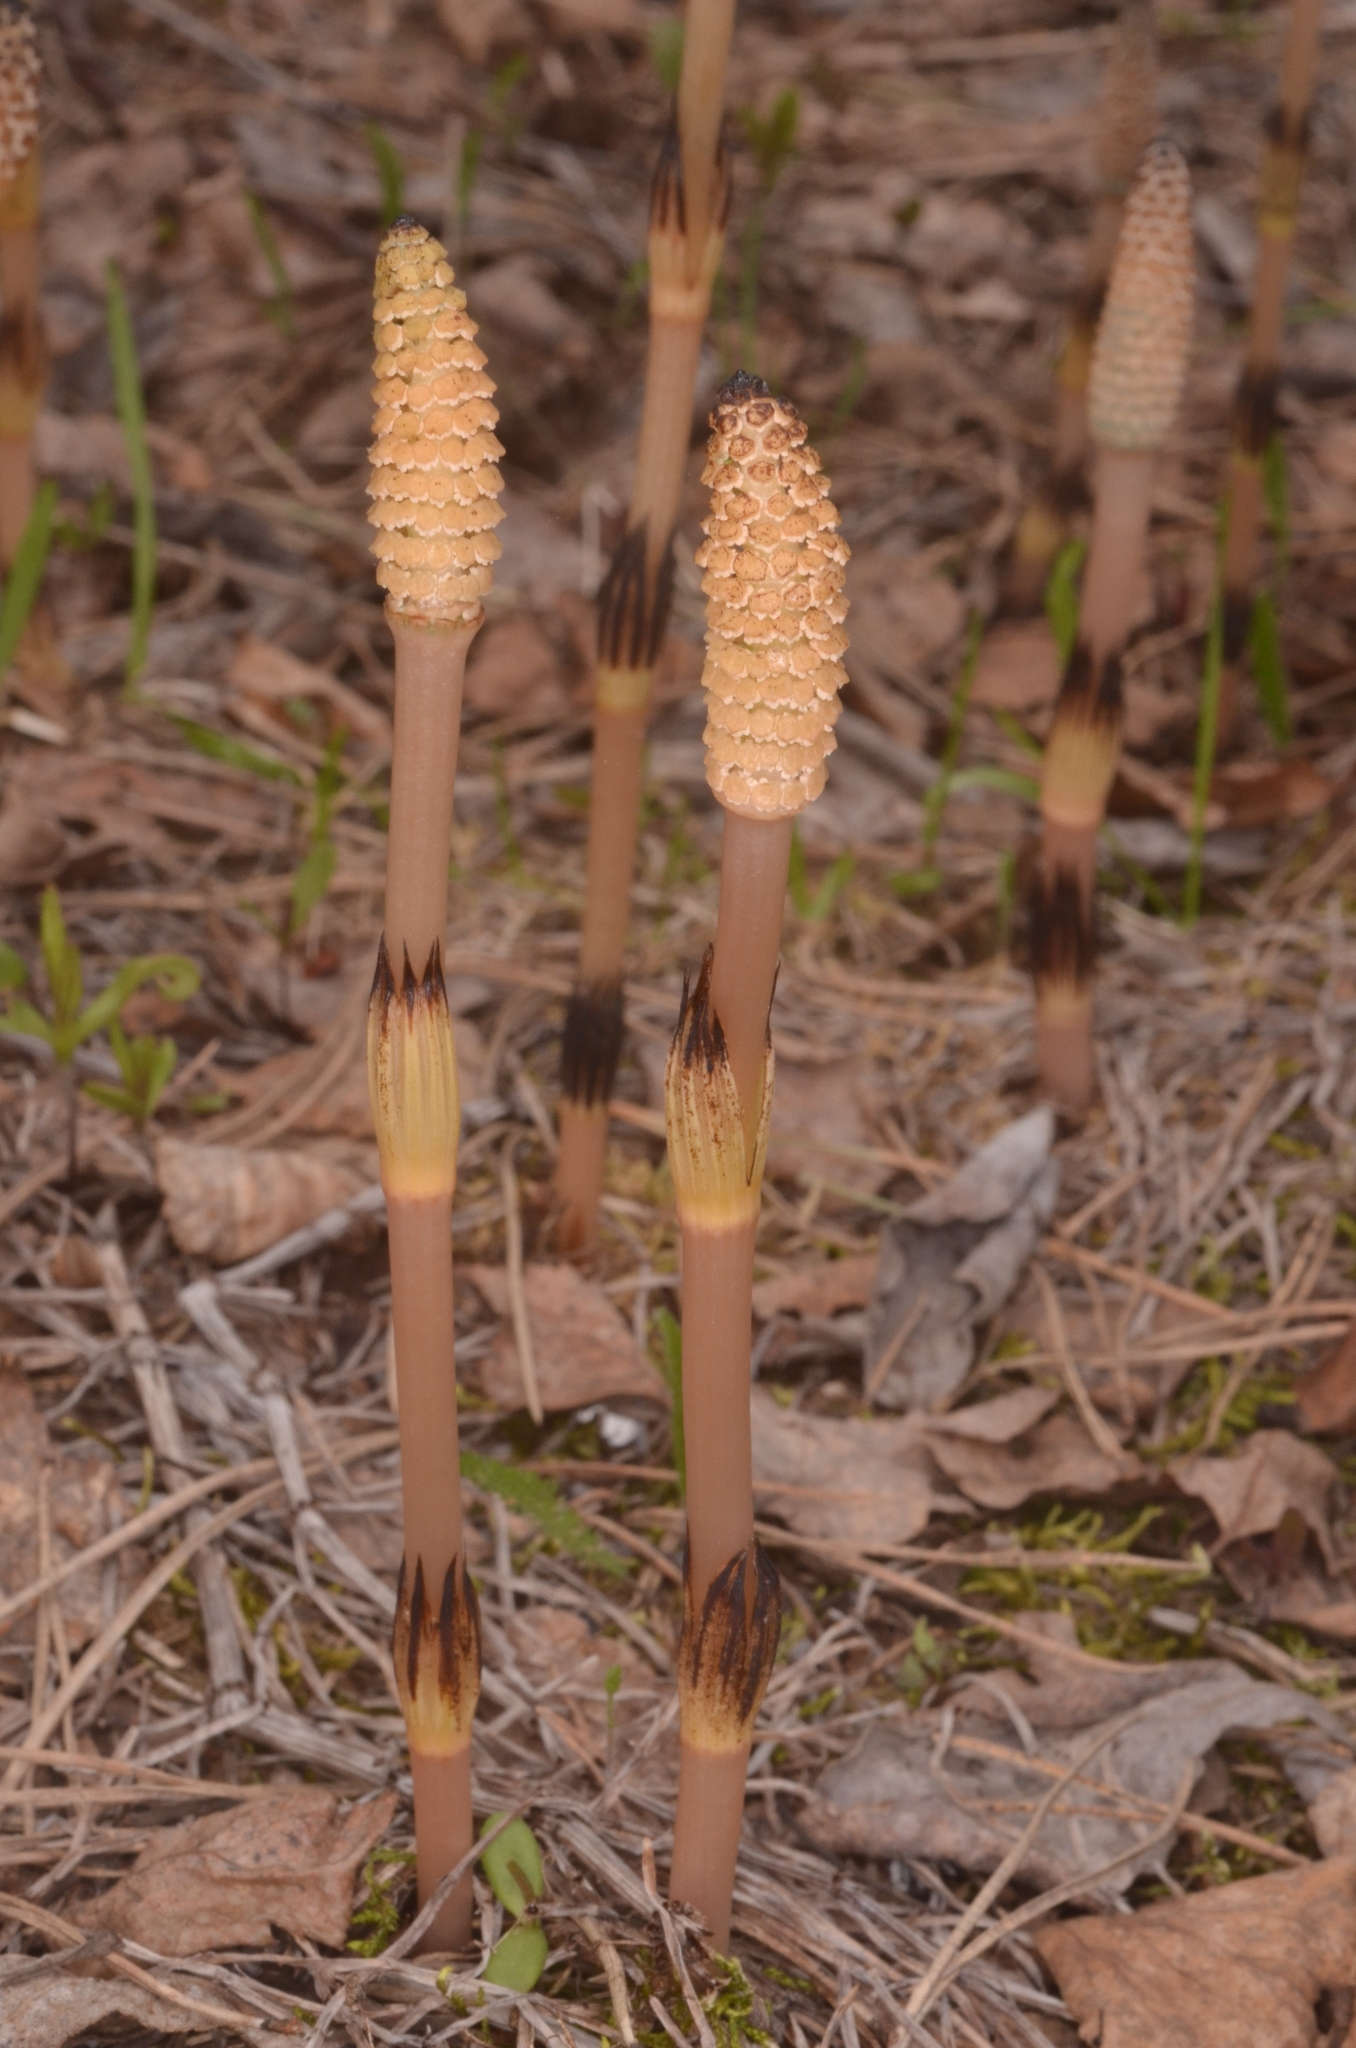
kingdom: Plantae
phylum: Tracheophyta
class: Polypodiopsida
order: Equisetales
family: Equisetaceae
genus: Equisetum
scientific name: Equisetum arvense
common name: Field horsetail
